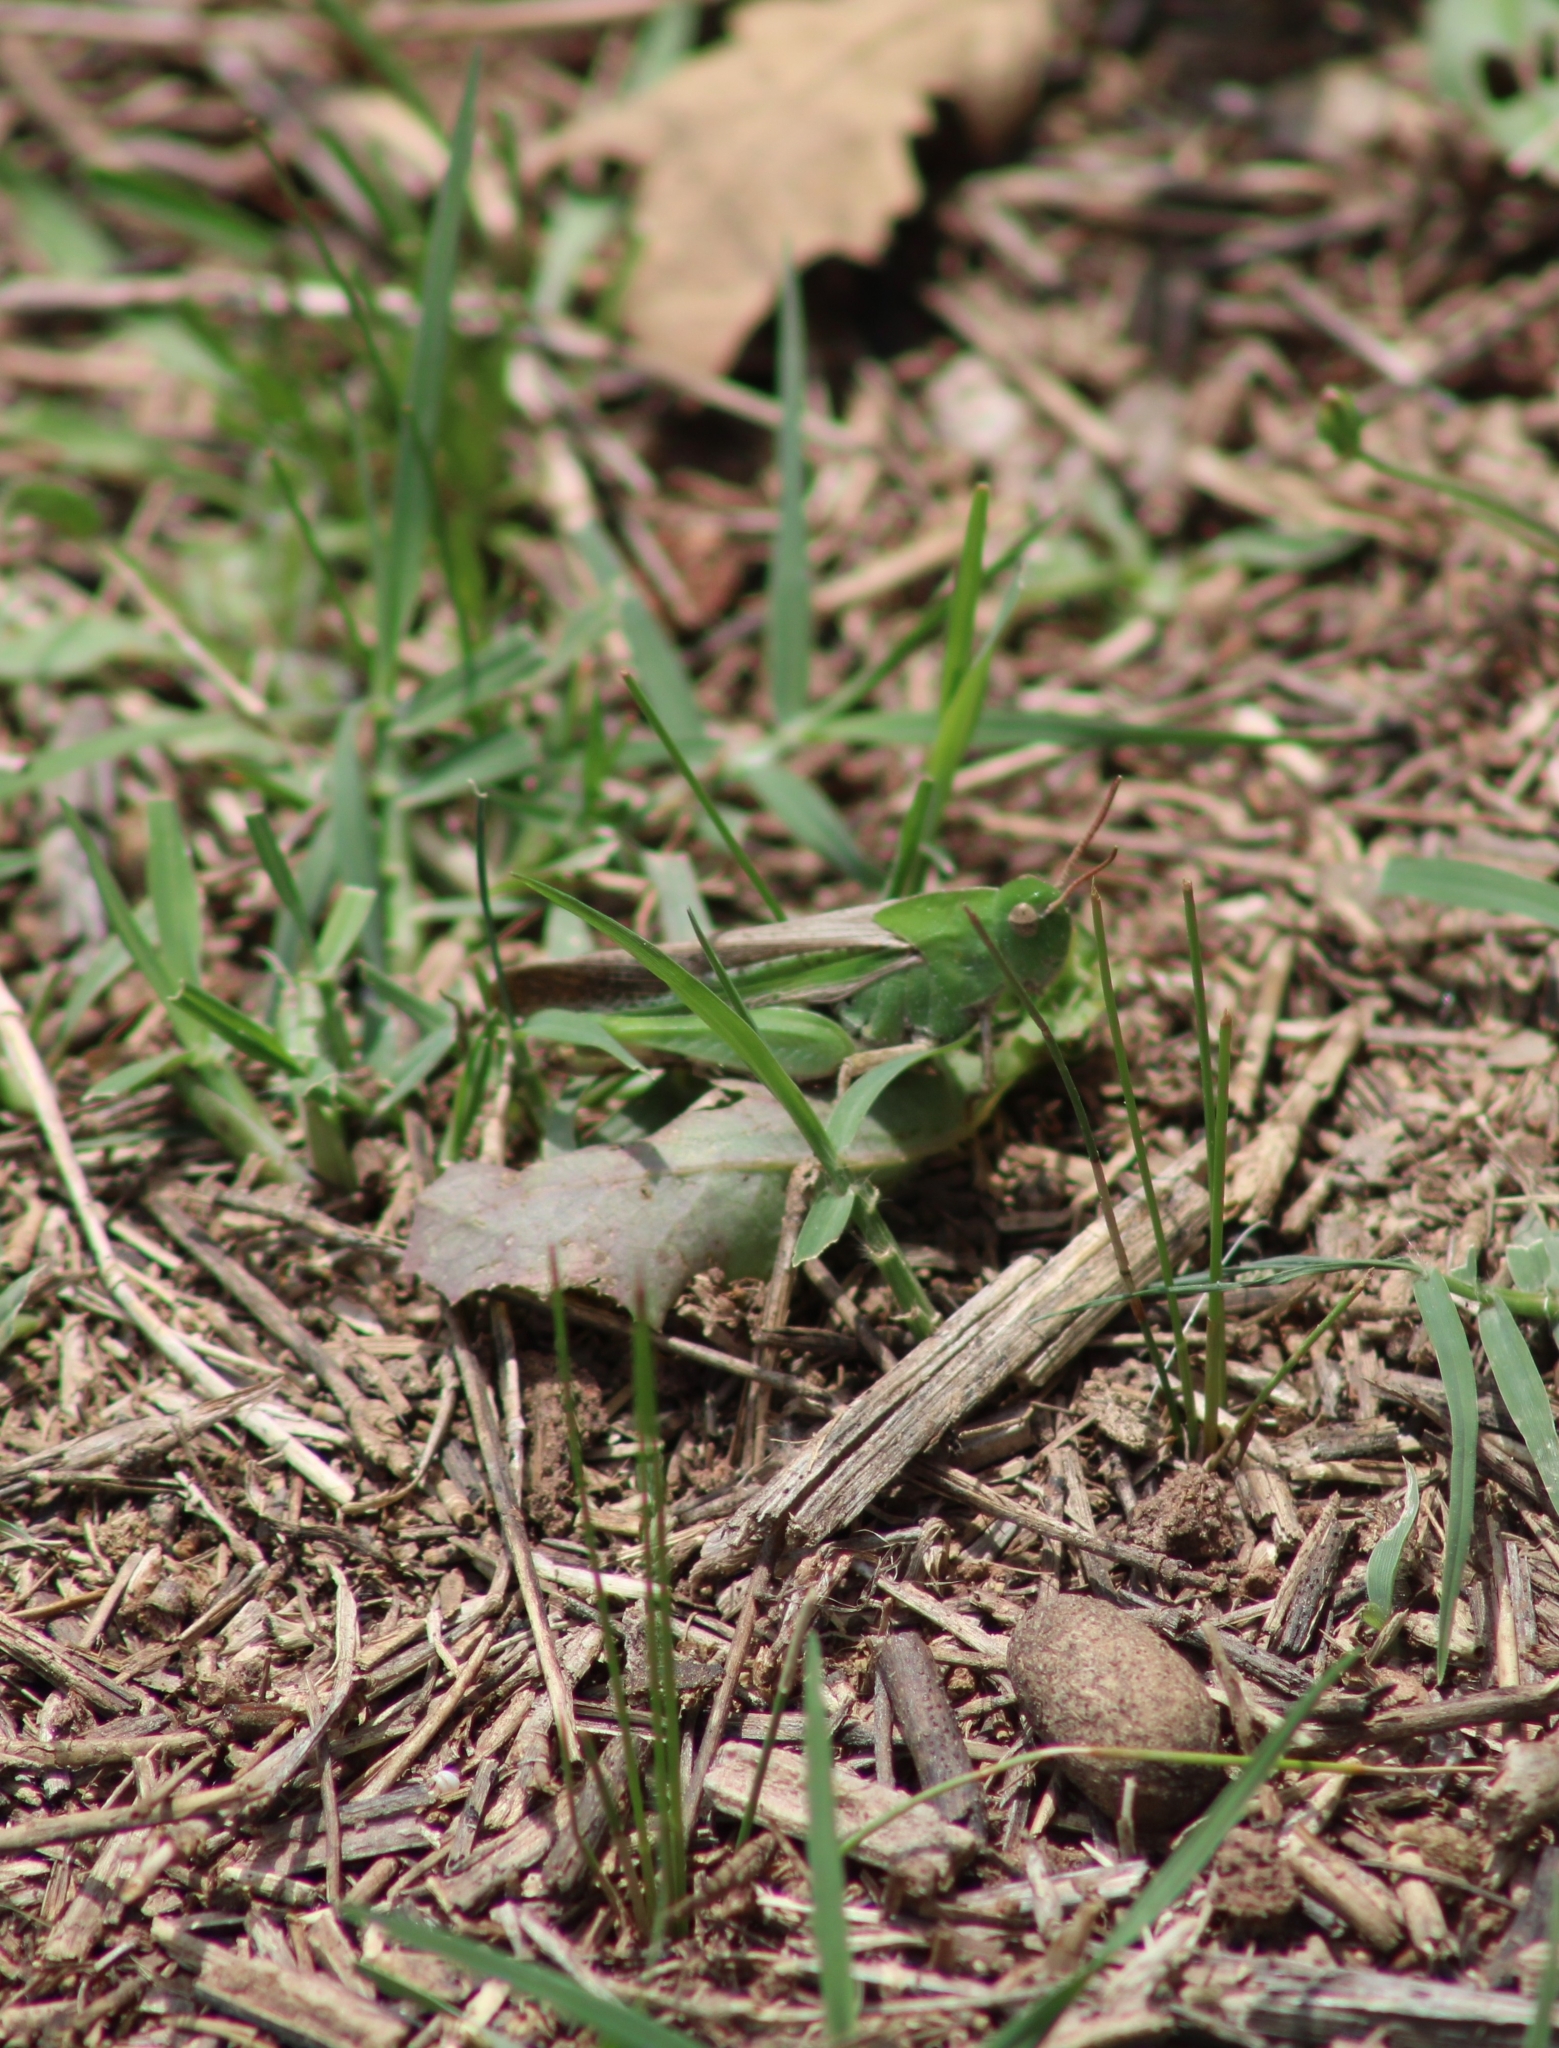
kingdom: Animalia
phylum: Arthropoda
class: Insecta
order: Orthoptera
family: Acrididae
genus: Chortophaga
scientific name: Chortophaga viridifasciata
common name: Green-striped grasshopper
